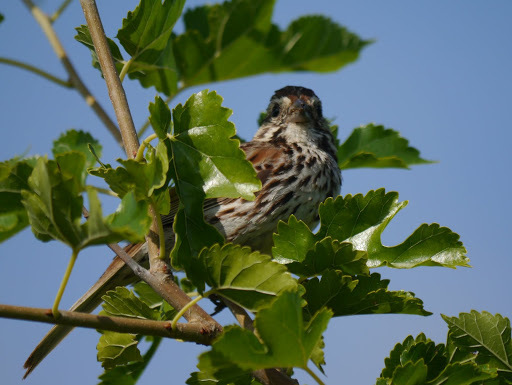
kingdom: Animalia
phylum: Chordata
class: Aves
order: Passeriformes
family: Passerellidae
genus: Melospiza
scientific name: Melospiza melodia
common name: Song sparrow
